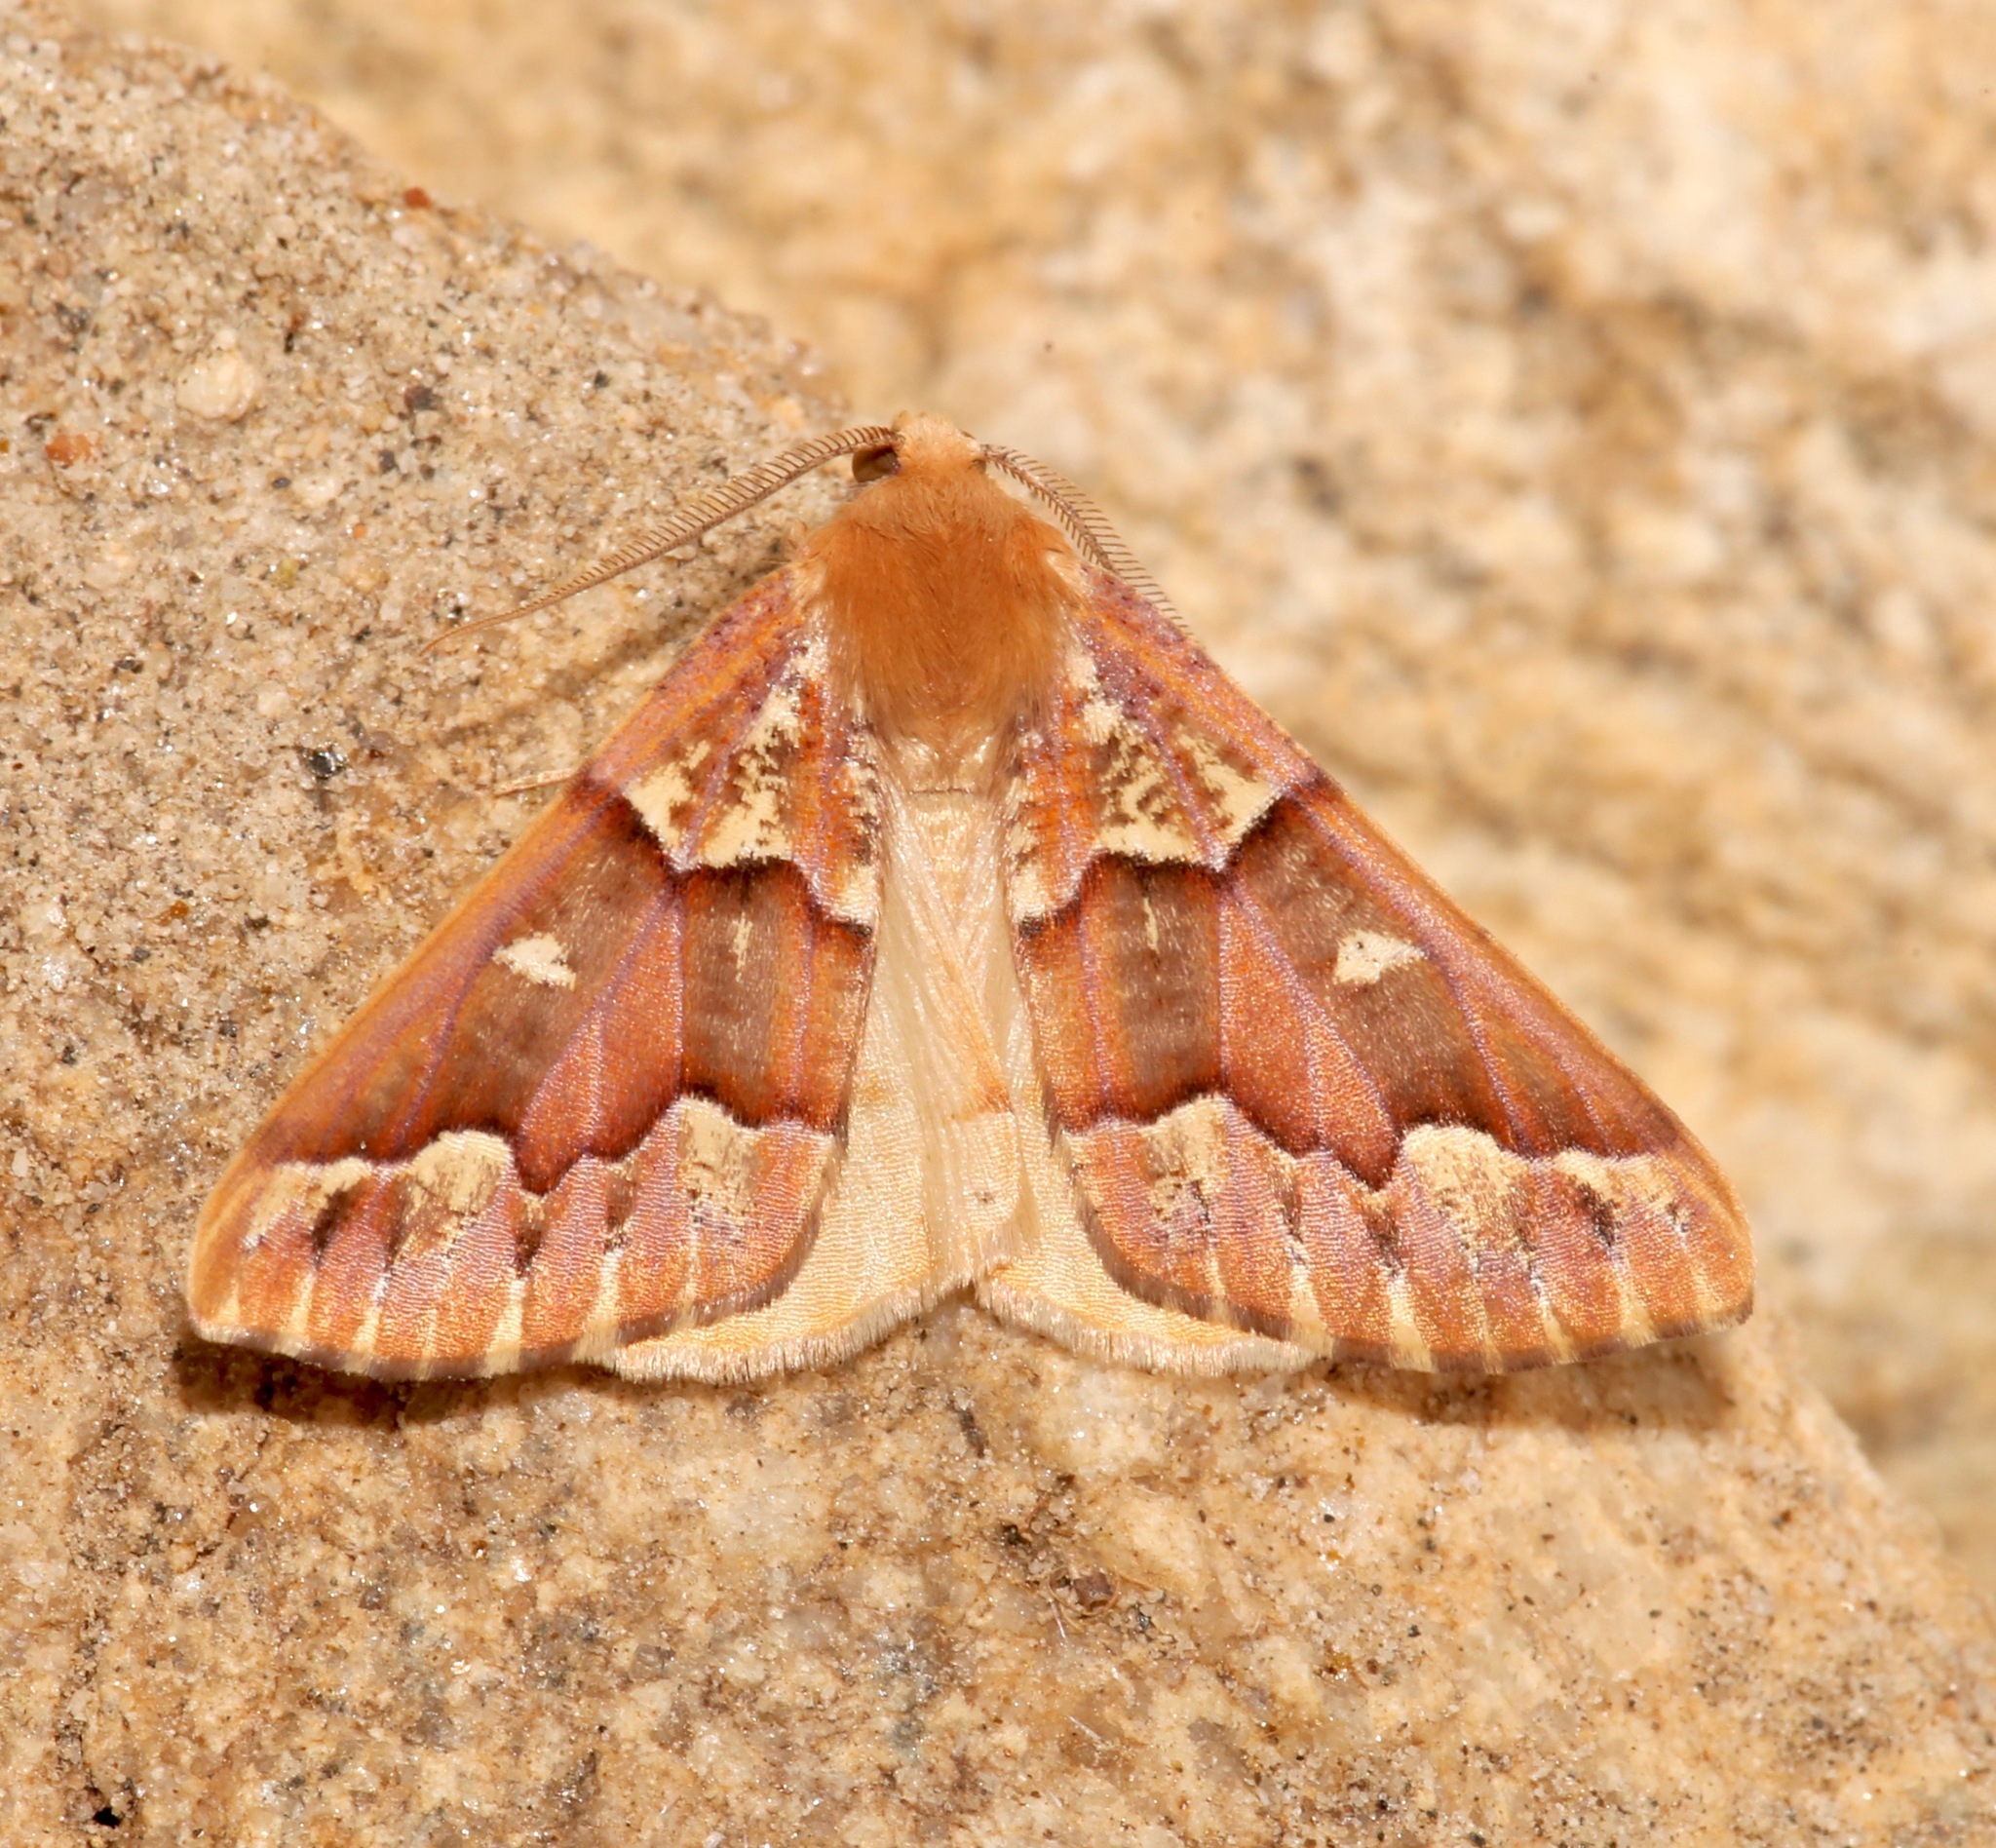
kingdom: Animalia
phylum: Arthropoda
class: Insecta
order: Lepidoptera
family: Geometridae
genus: Caripeta
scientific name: Caripeta aequaliaria
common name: Red girdle moth
